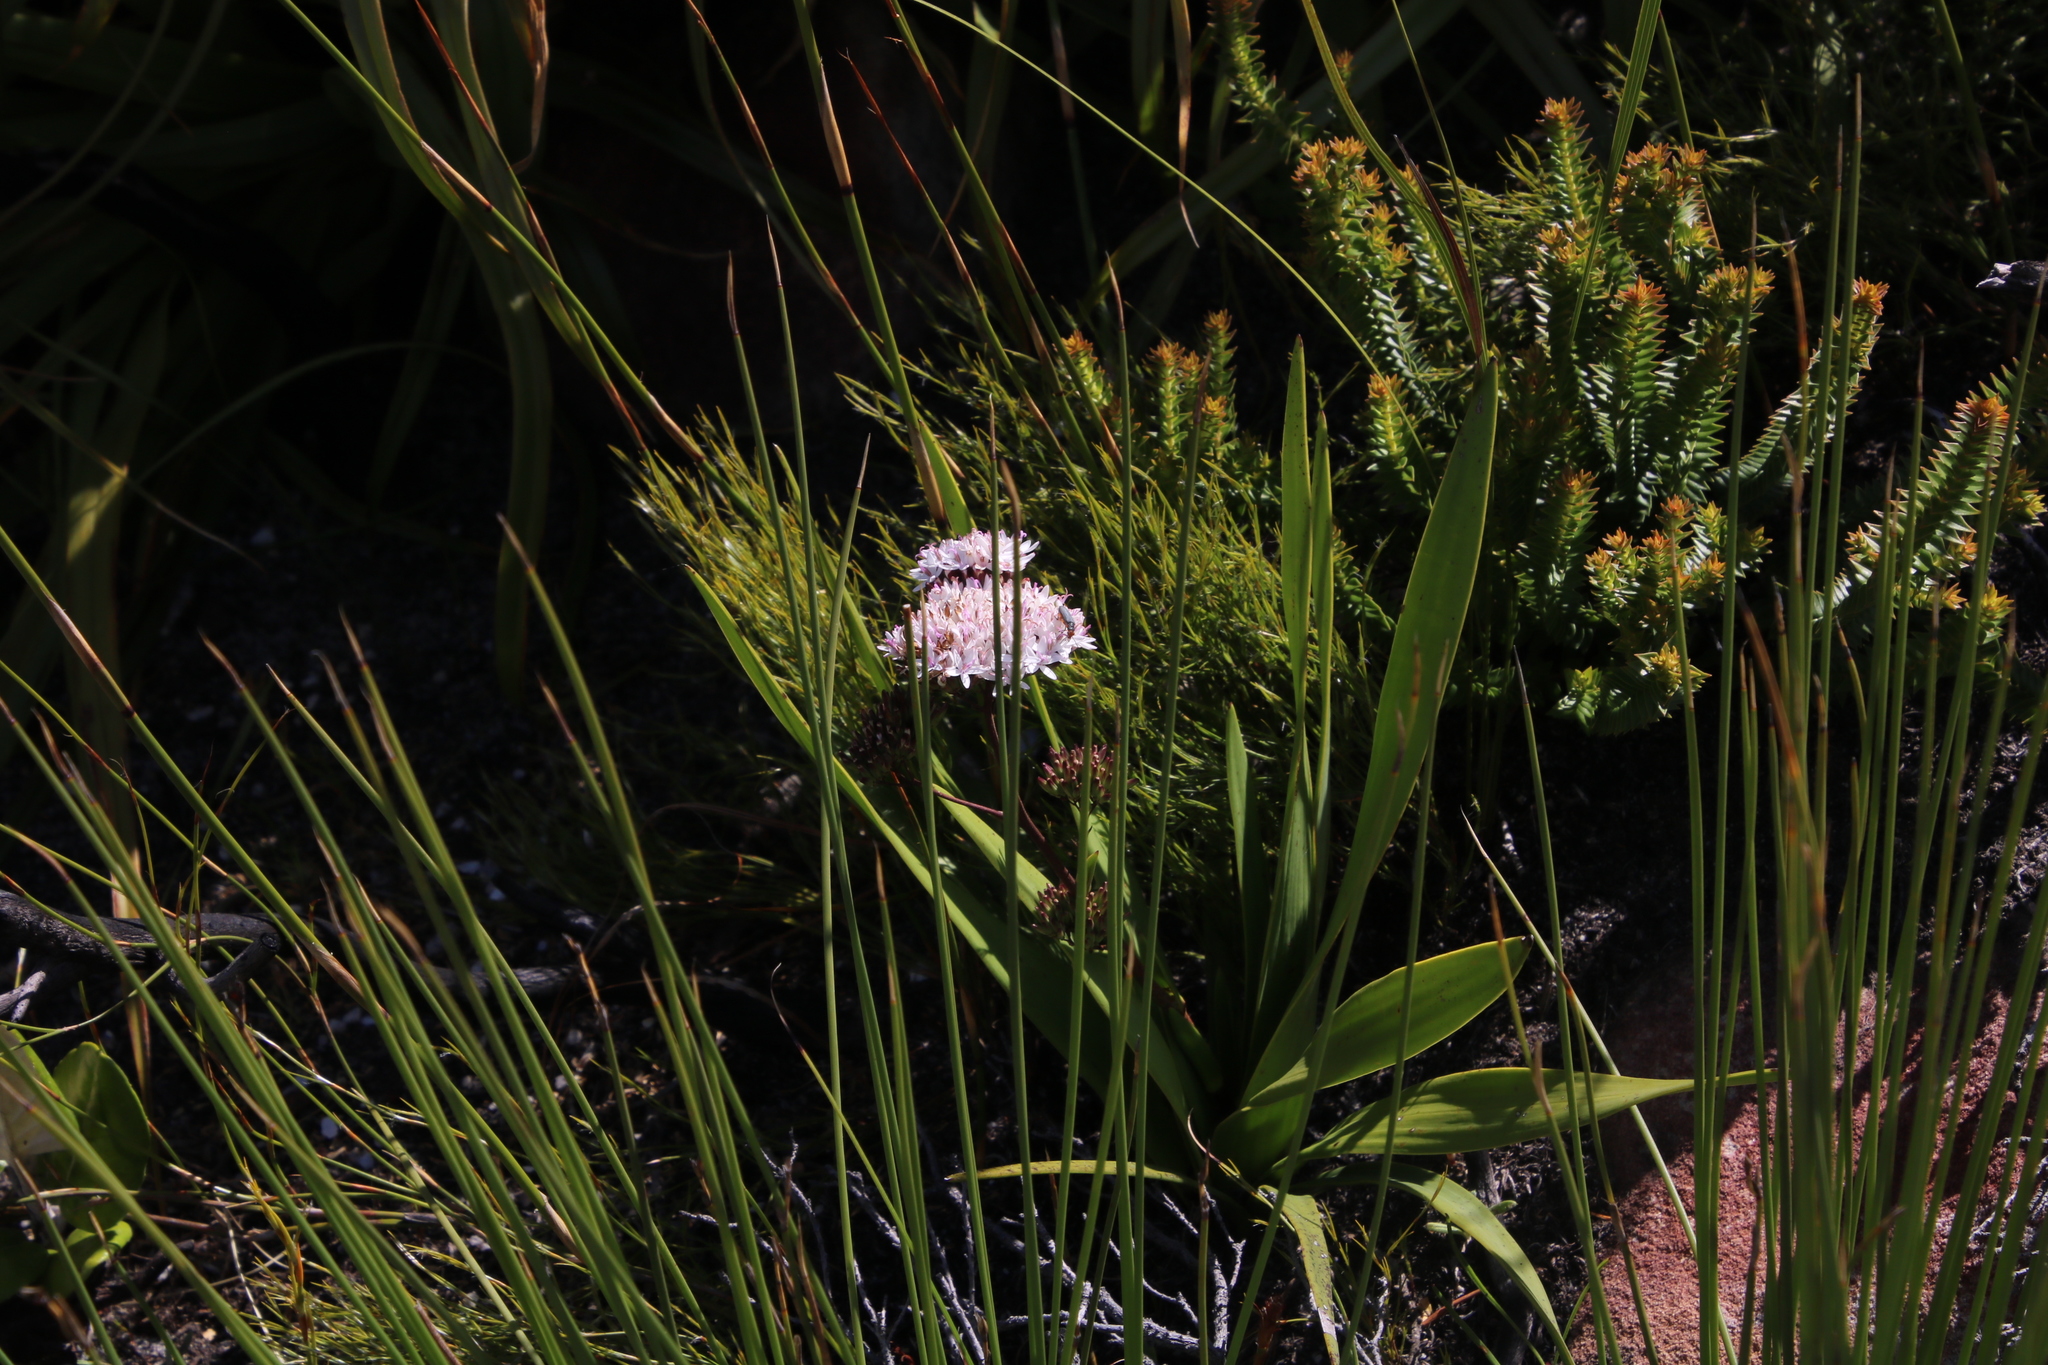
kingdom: Animalia
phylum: Arthropoda
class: Insecta
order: Coleoptera
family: Oedemeridae
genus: Melananthia
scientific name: Melananthia
